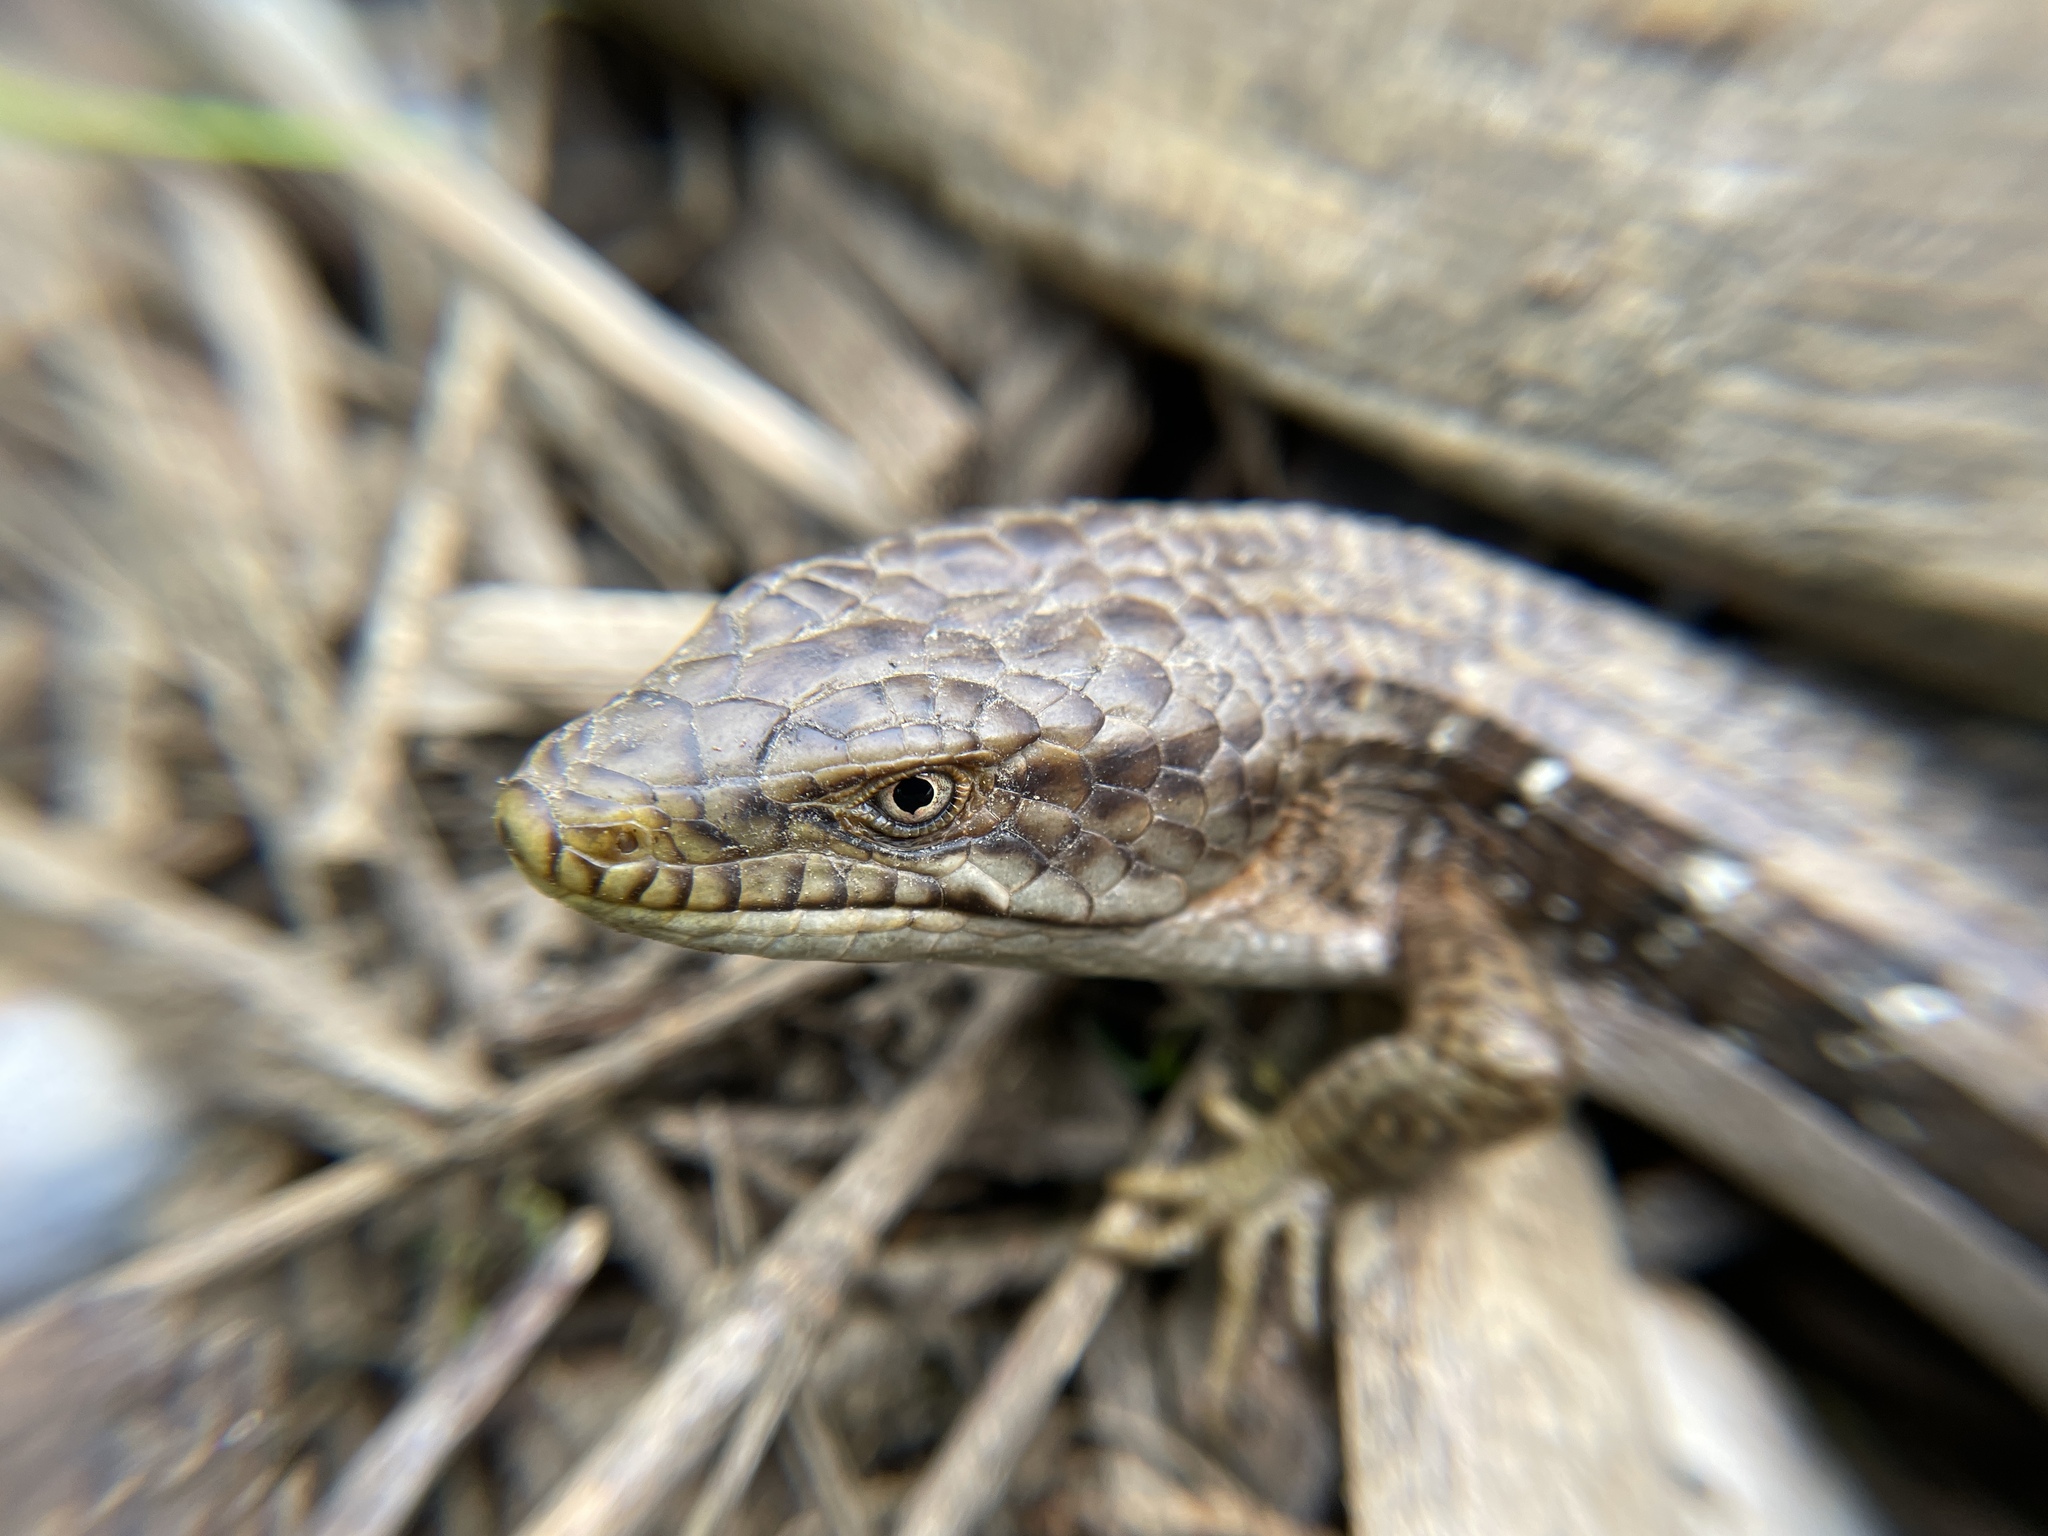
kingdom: Animalia
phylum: Chordata
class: Squamata
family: Anguidae
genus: Elgaria
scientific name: Elgaria multicarinata
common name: Southern alligator lizard
